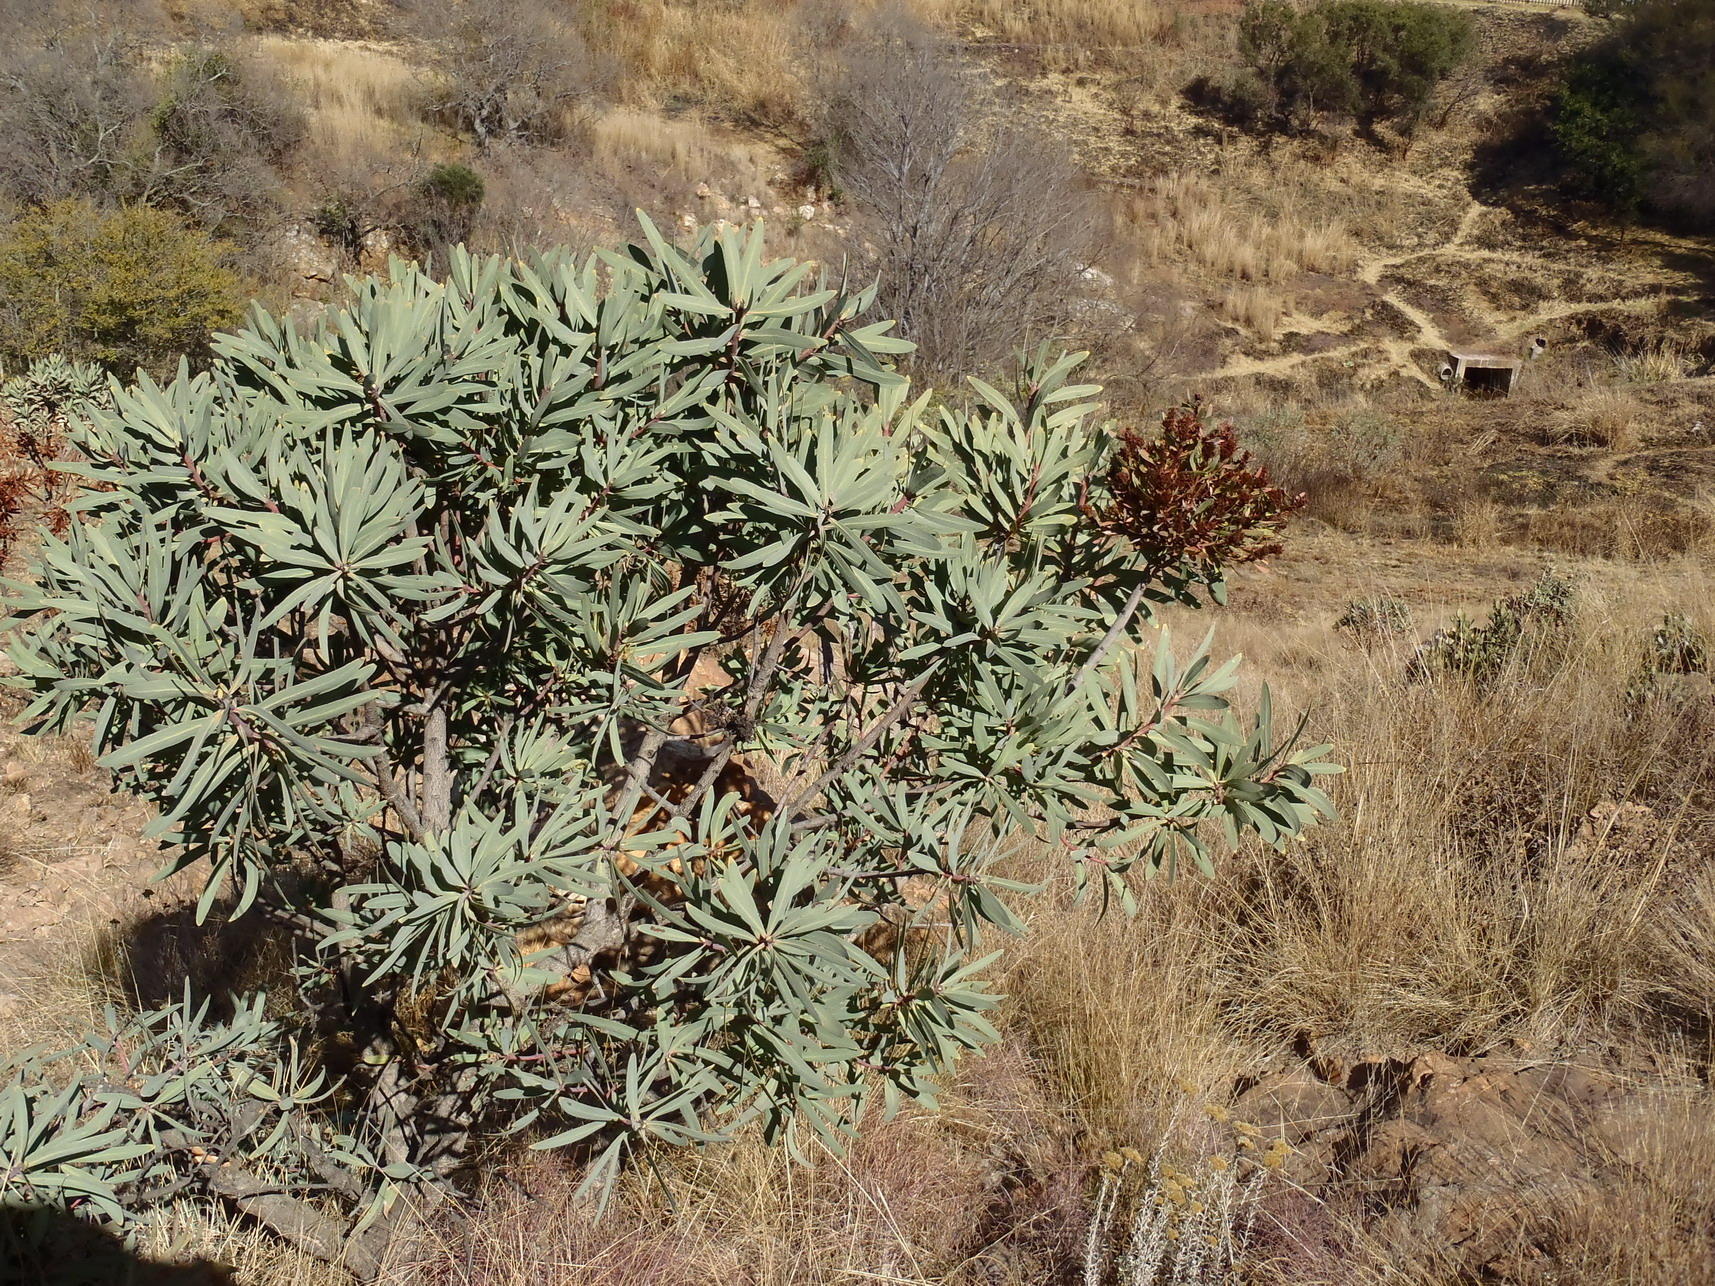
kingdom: Bacteria
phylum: Firmicutes
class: Bacilli
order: Acholeplasmatales
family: Acholeplasmataceae
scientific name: Acholeplasmataceae
